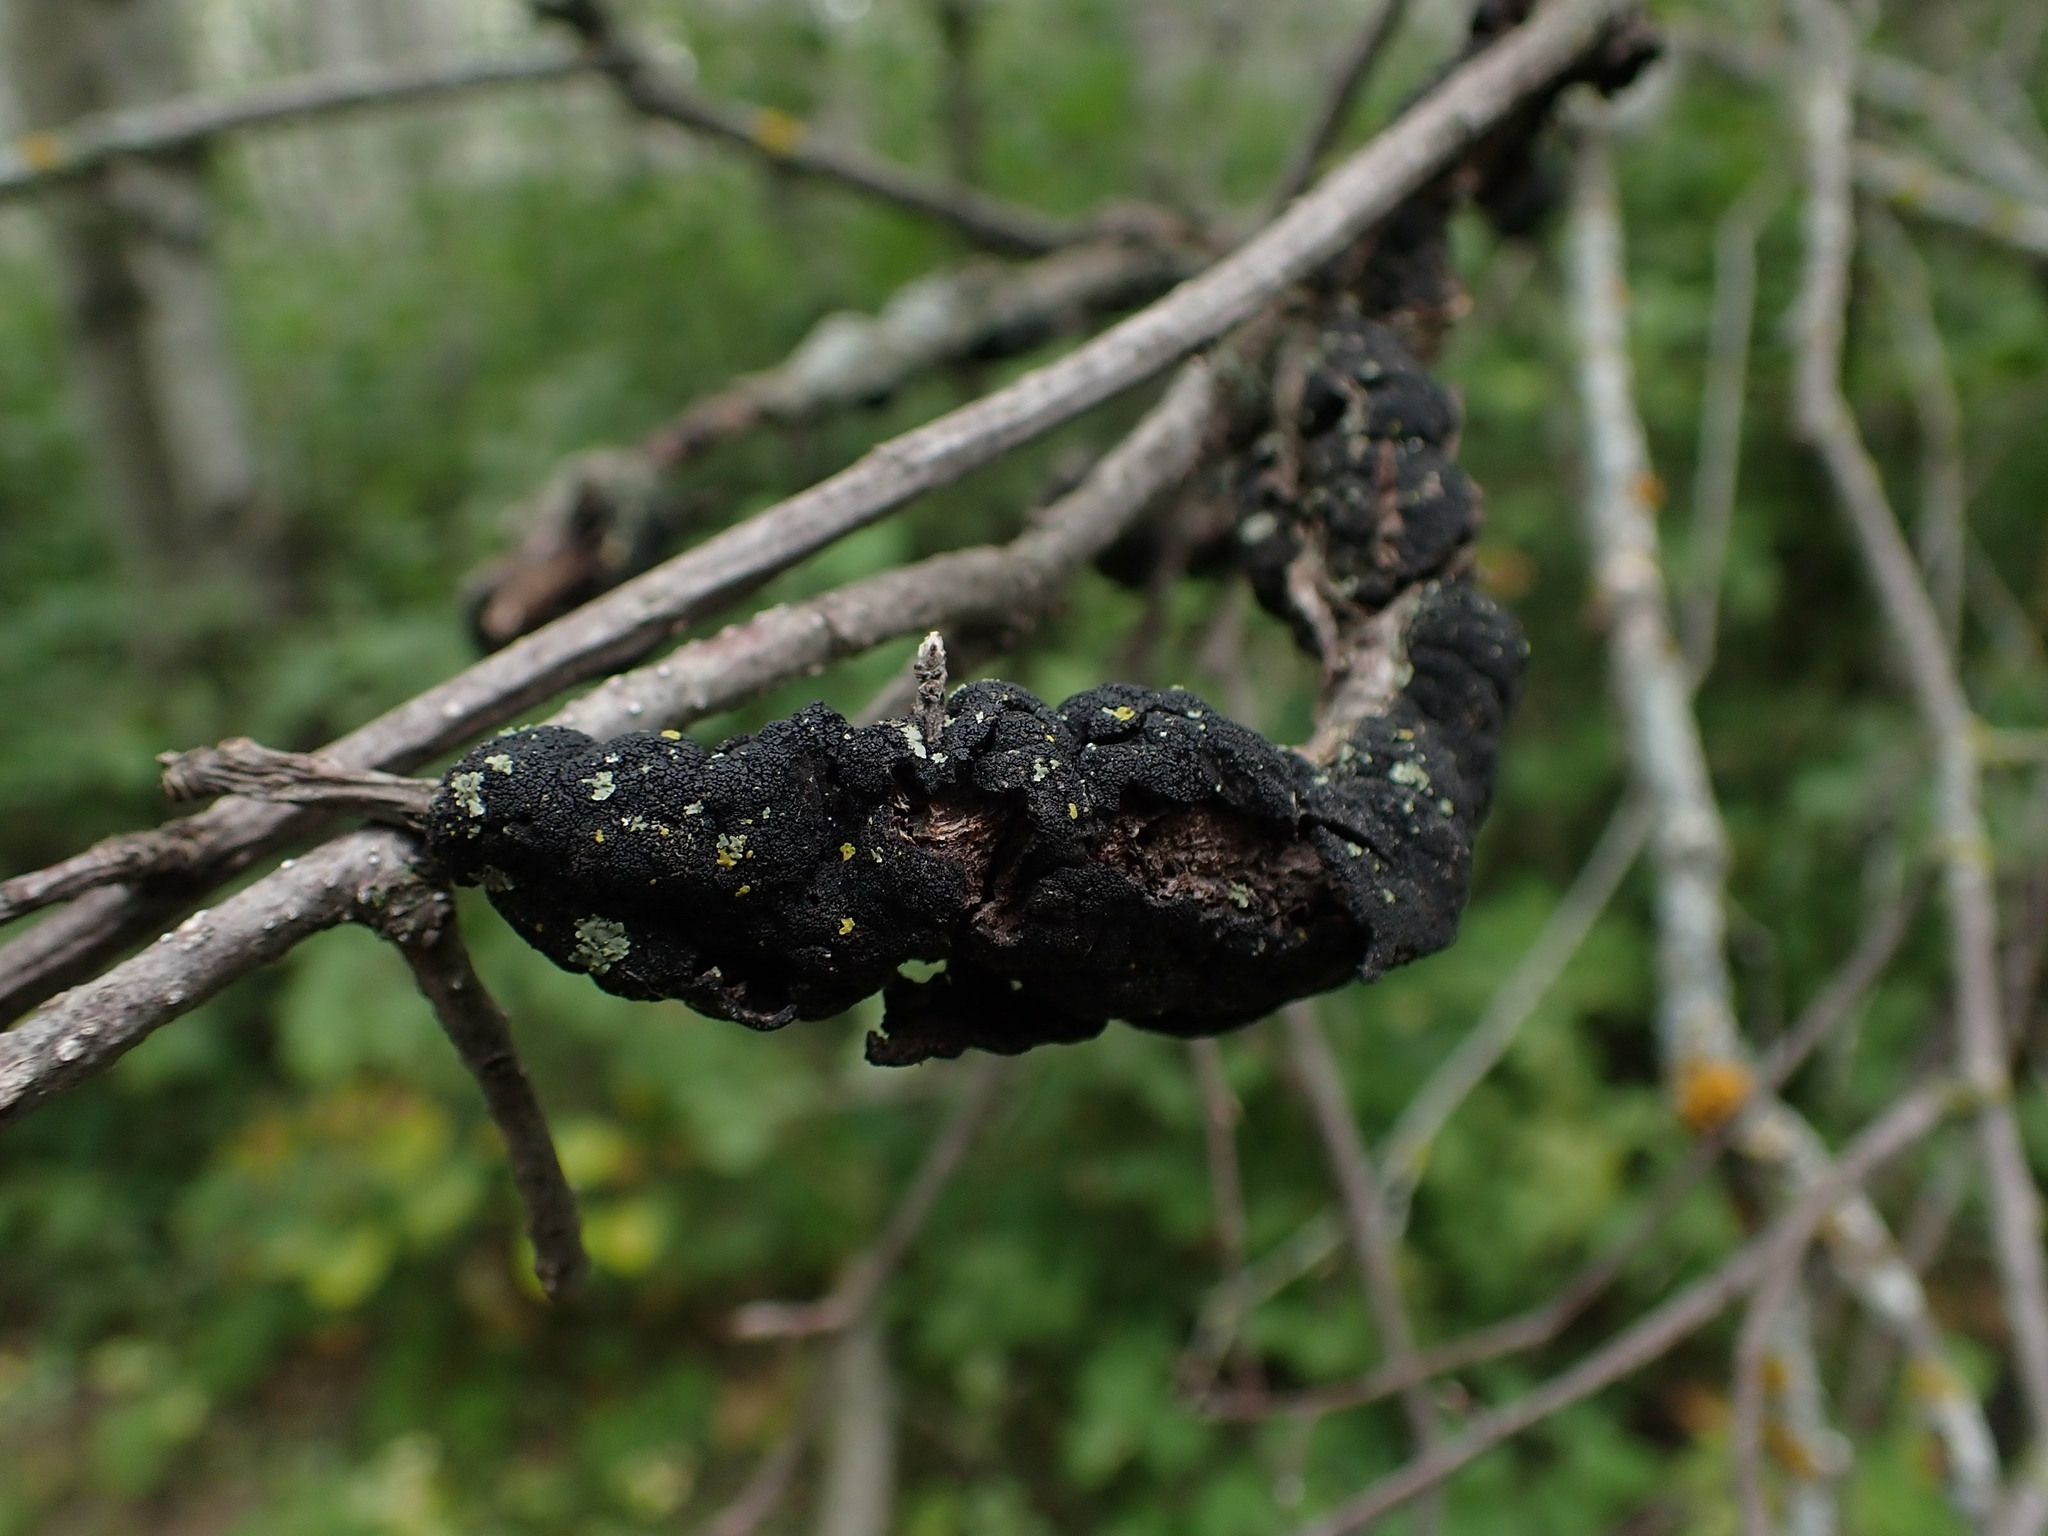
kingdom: Fungi
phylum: Ascomycota
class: Dothideomycetes
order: Venturiales
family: Venturiaceae
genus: Apiosporina
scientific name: Apiosporina morbosa
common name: Black knot
